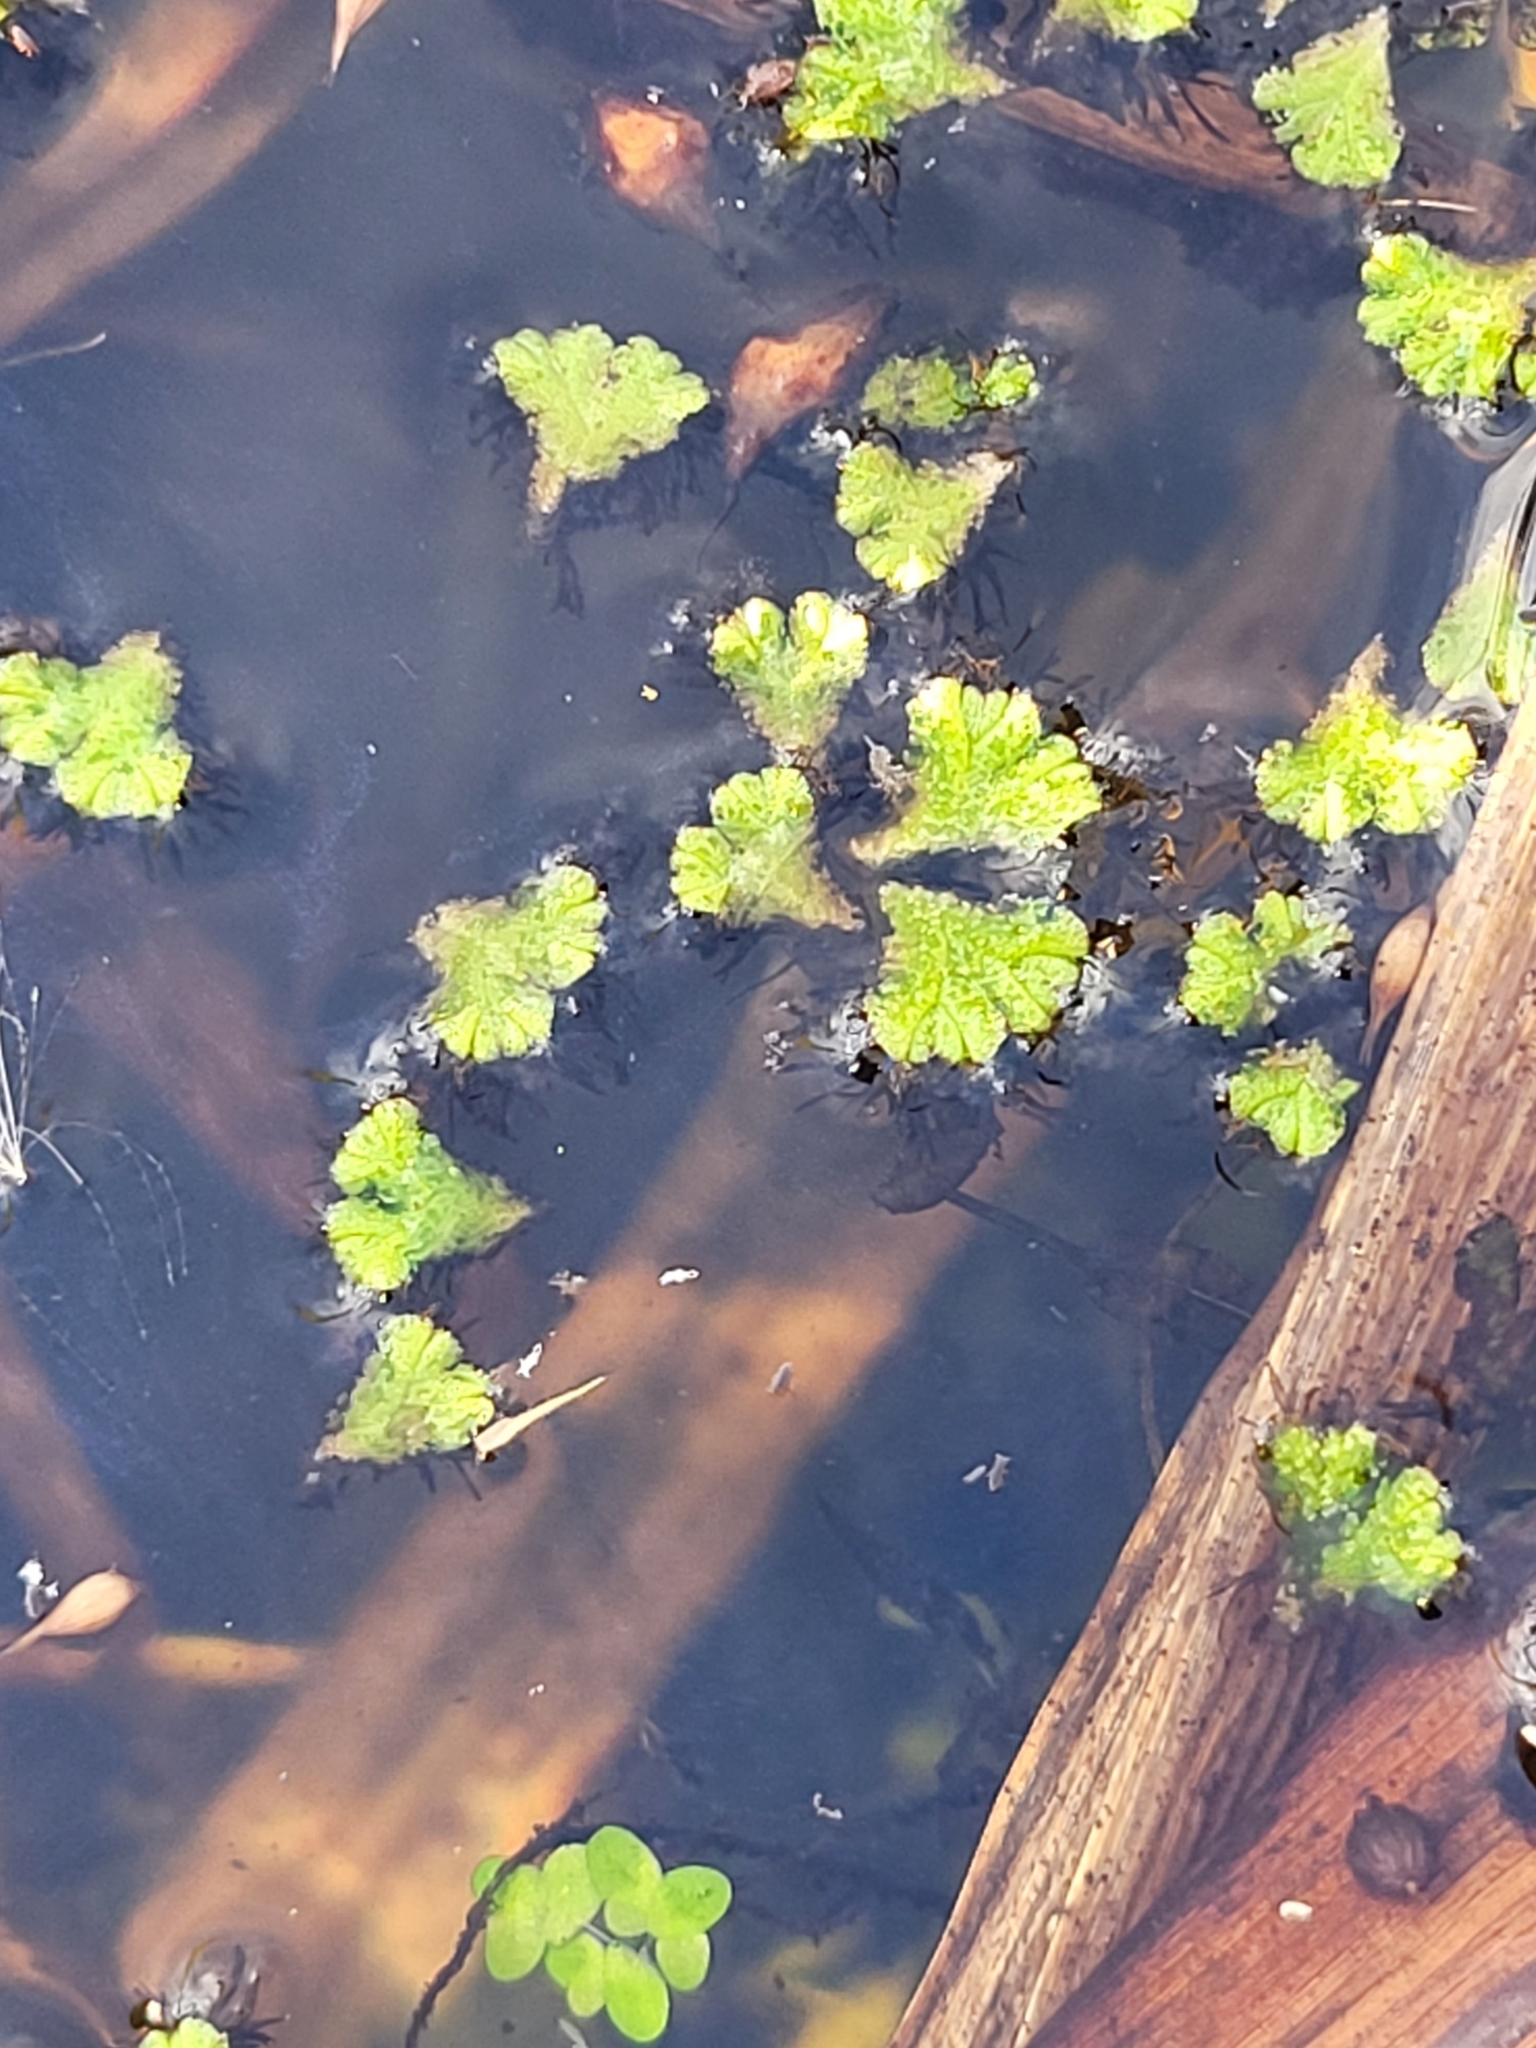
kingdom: Plantae
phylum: Marchantiophyta
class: Marchantiopsida
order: Marchantiales
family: Ricciaceae
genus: Ricciocarpos
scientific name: Ricciocarpos natans
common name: Purple-fringed liverwort
